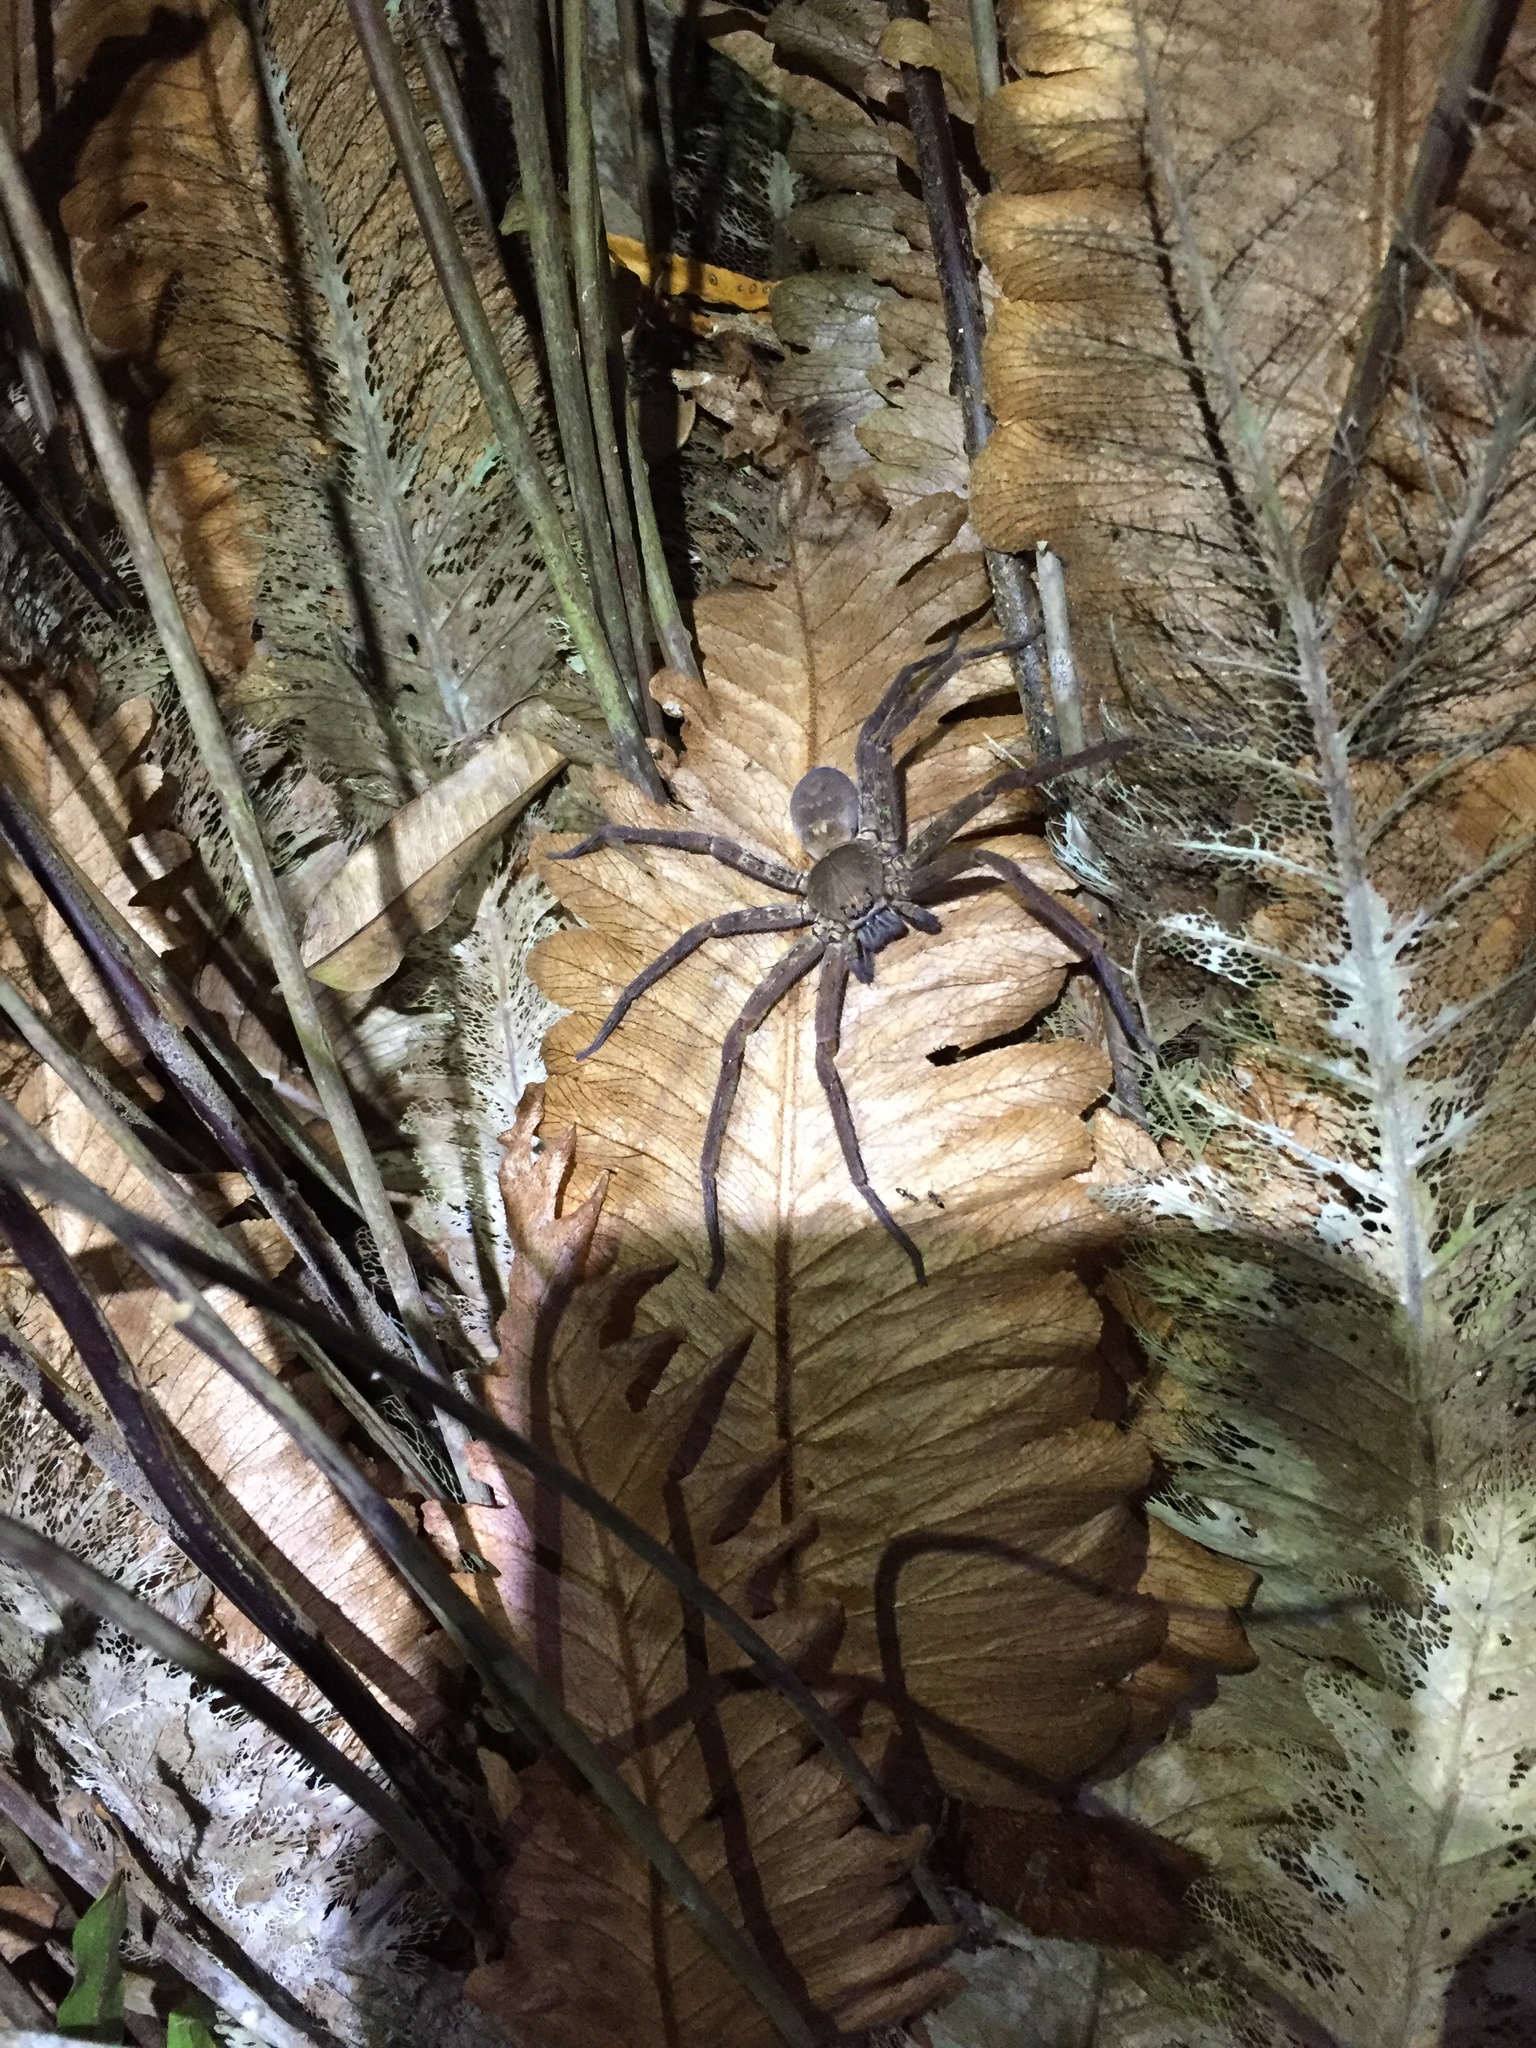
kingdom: Animalia
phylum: Arthropoda
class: Arachnida
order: Araneae
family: Sparassidae
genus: Heteropoda
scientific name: Heteropoda venatoria
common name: Huntsman spider
